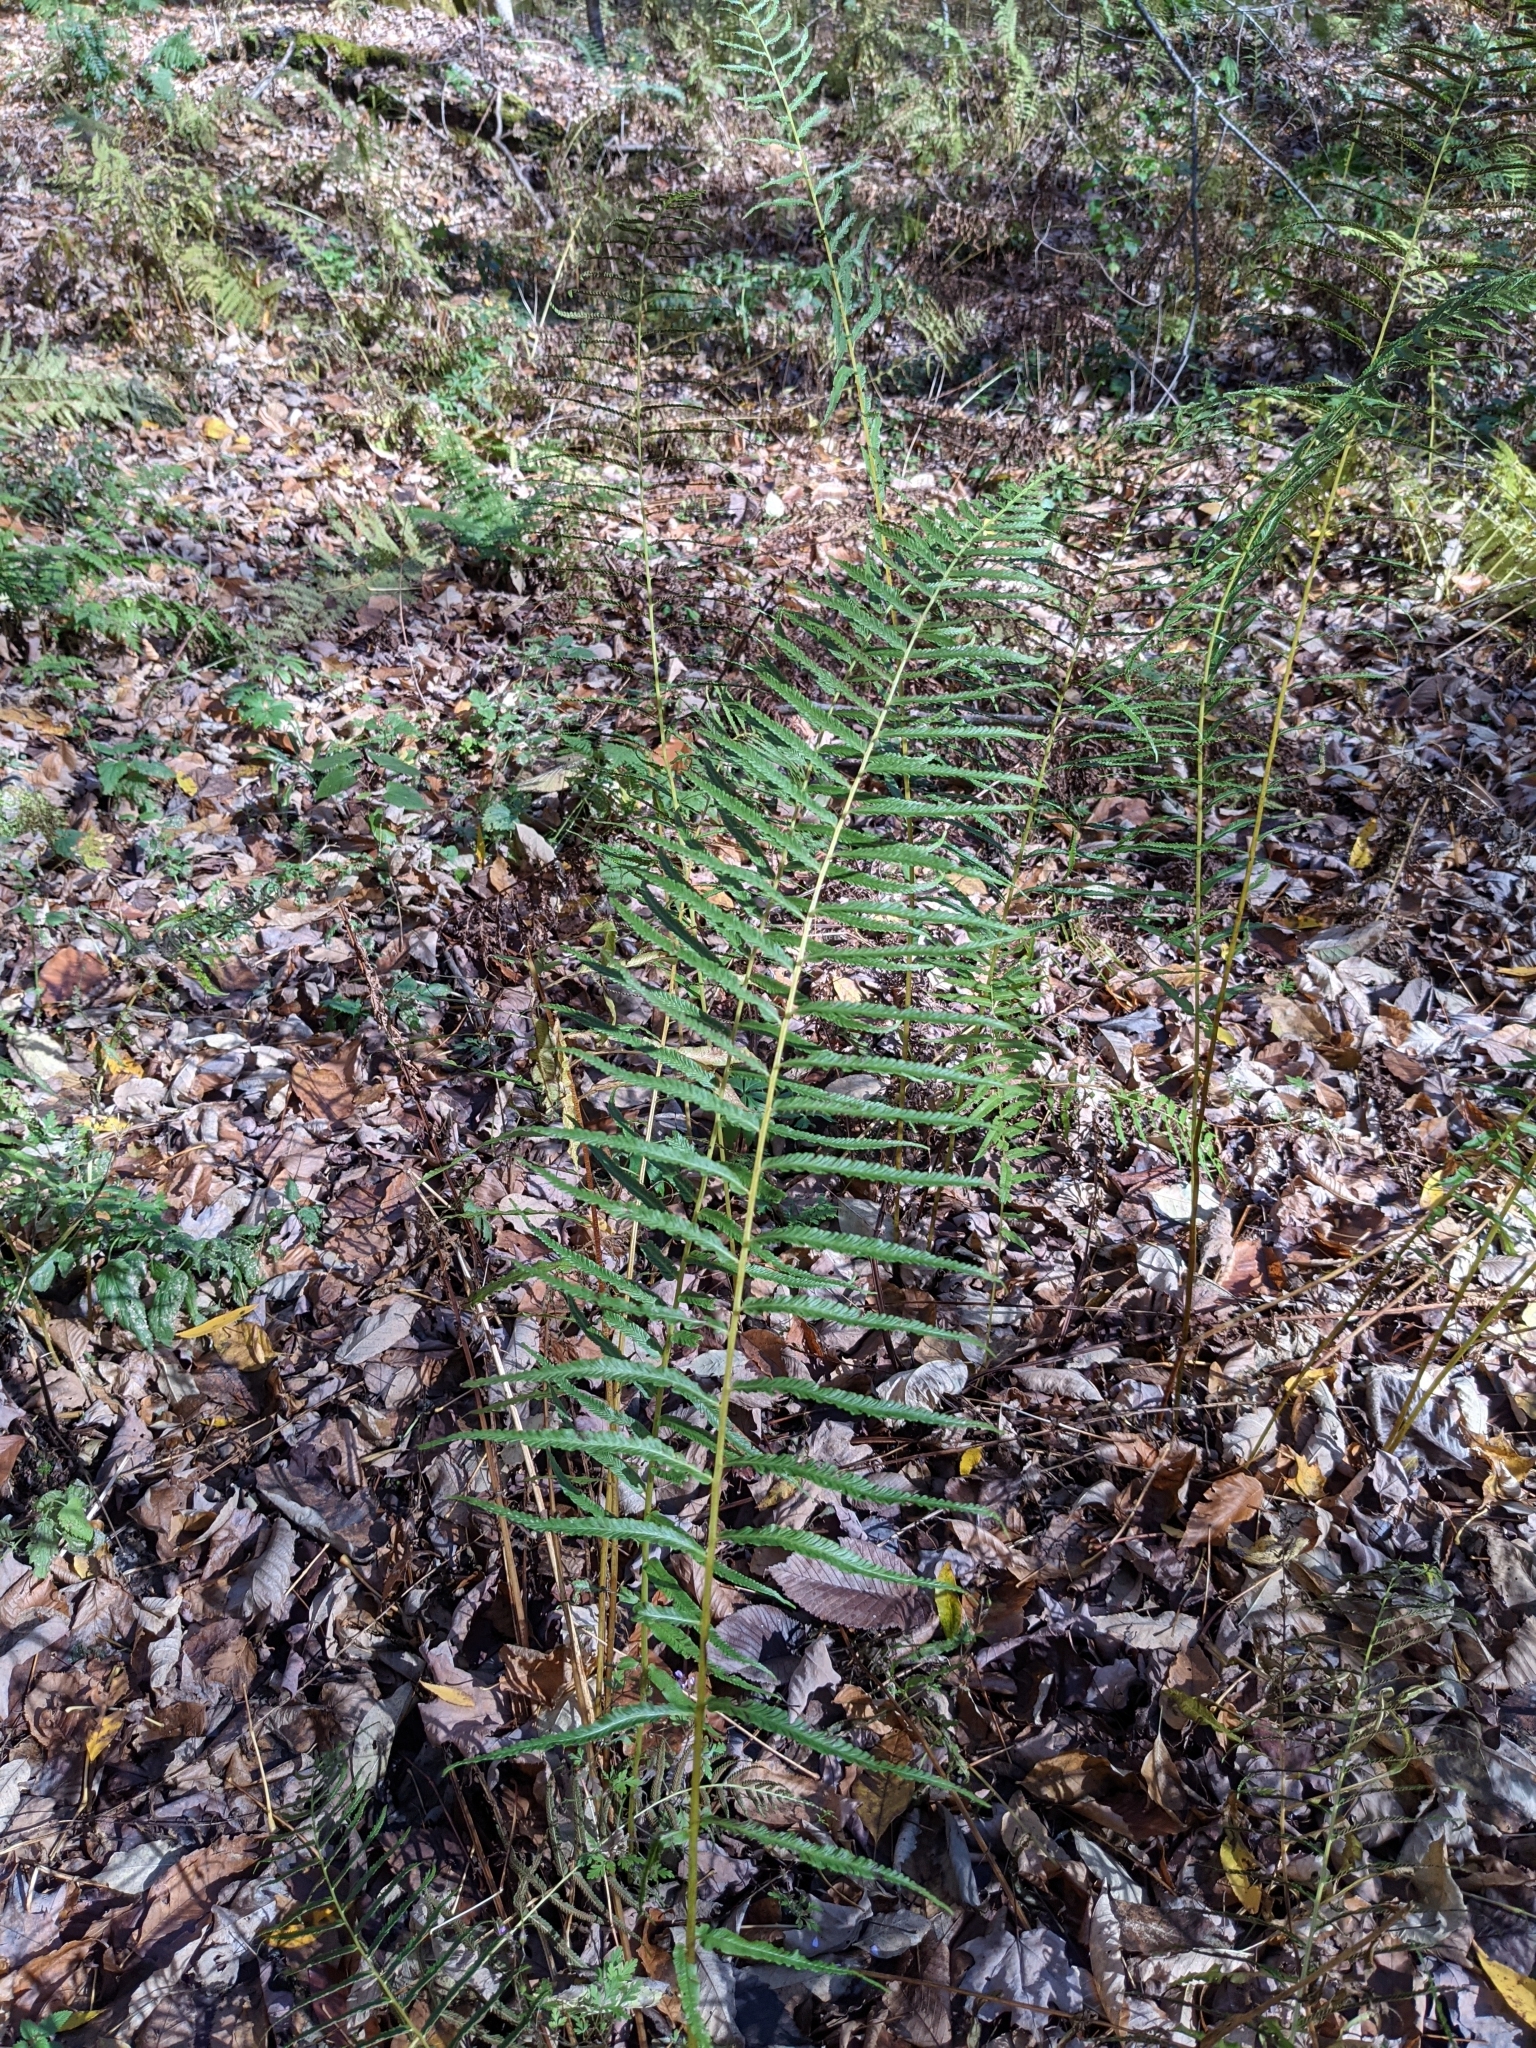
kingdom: Plantae
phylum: Tracheophyta
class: Polypodiopsida
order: Polypodiales
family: Diplaziopsidaceae
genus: Homalosorus
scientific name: Homalosorus pycnocarpos
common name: Glade fern
